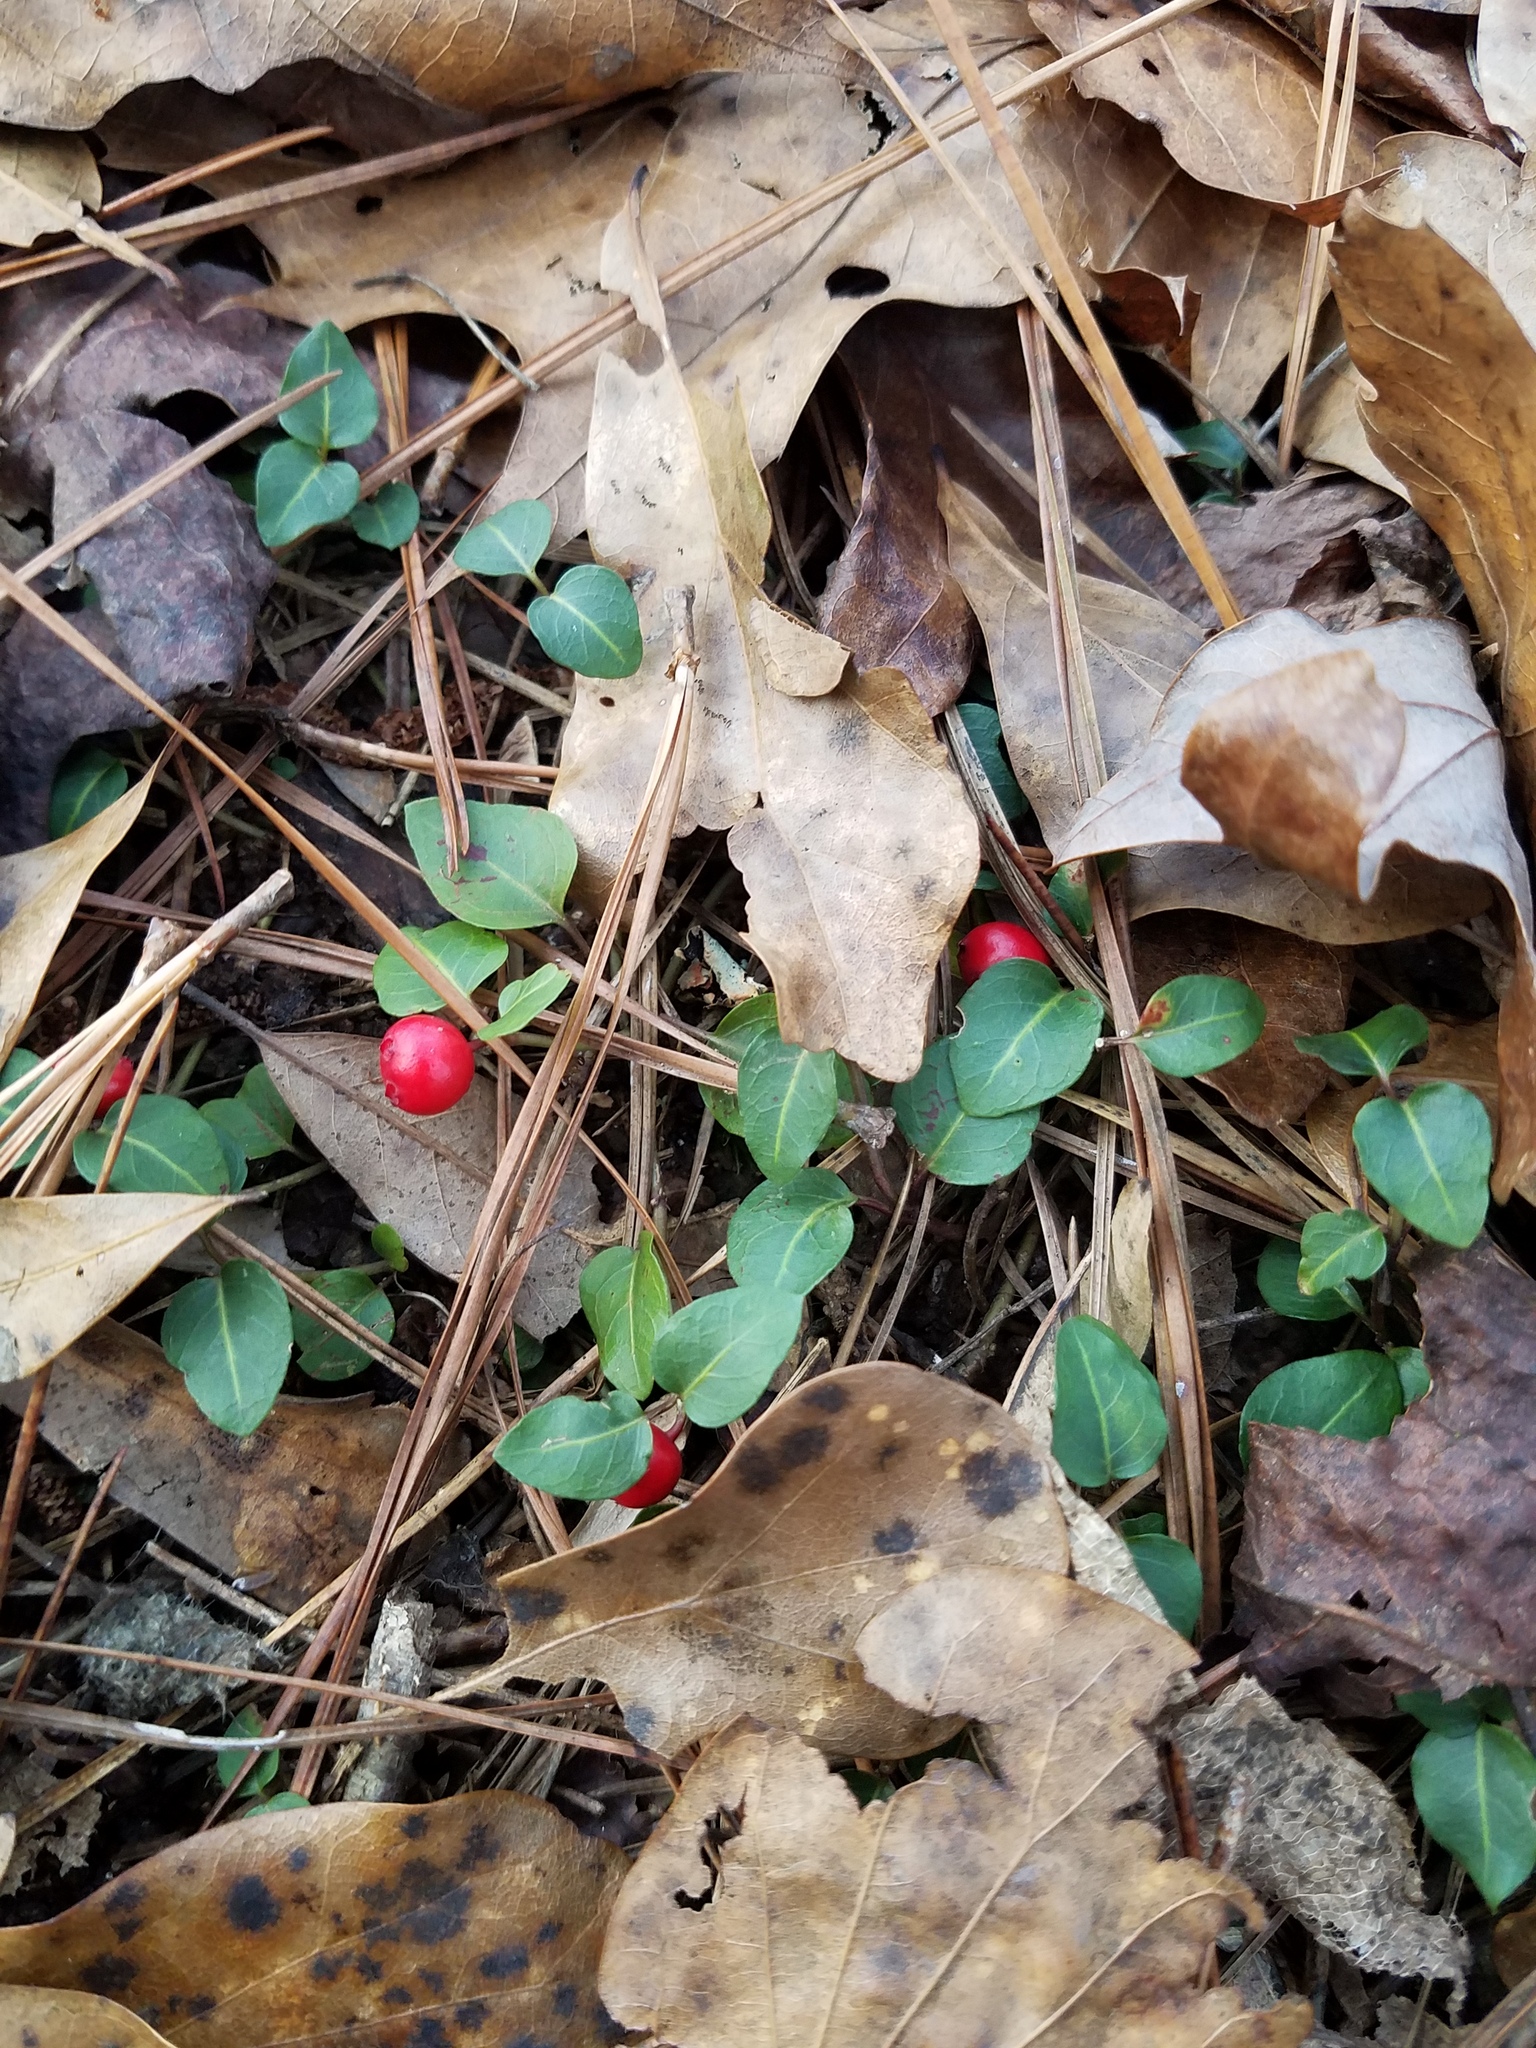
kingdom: Plantae
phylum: Tracheophyta
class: Magnoliopsida
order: Gentianales
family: Rubiaceae
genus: Mitchella
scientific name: Mitchella repens
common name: Partridge-berry
